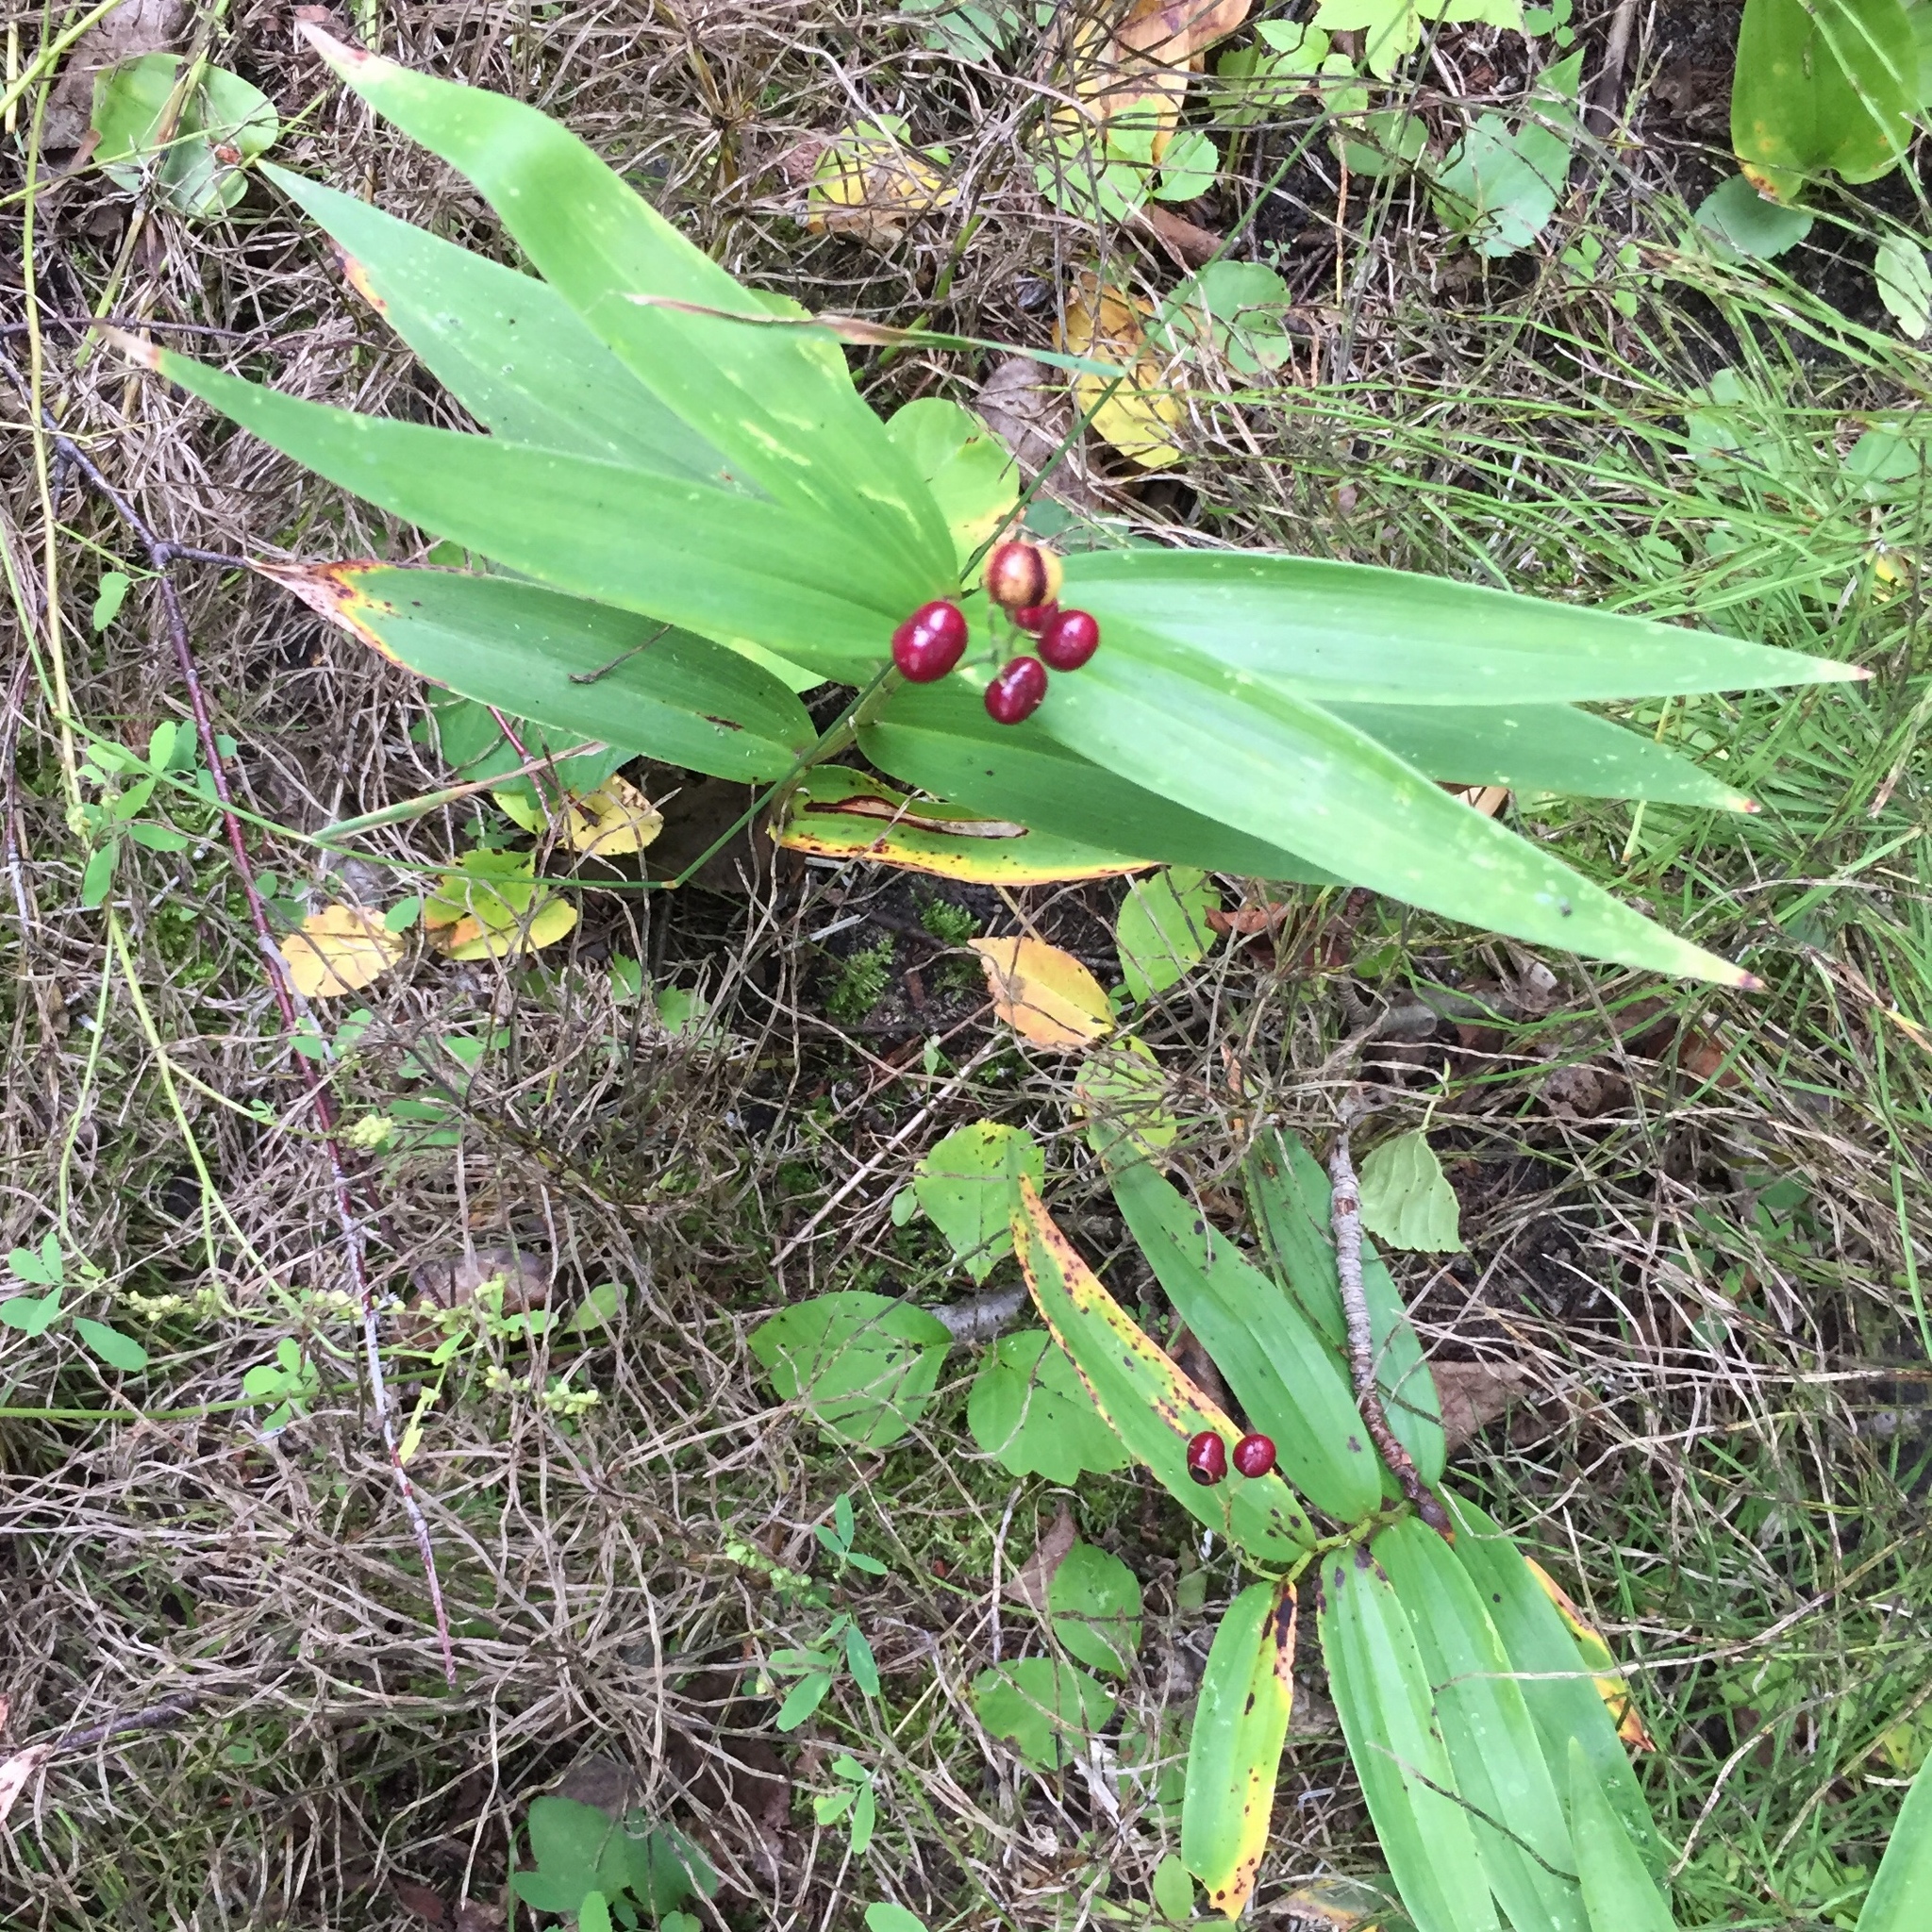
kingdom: Plantae
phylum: Tracheophyta
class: Liliopsida
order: Asparagales
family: Asparagaceae
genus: Maianthemum
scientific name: Maianthemum stellatum
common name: Little false solomon's seal
